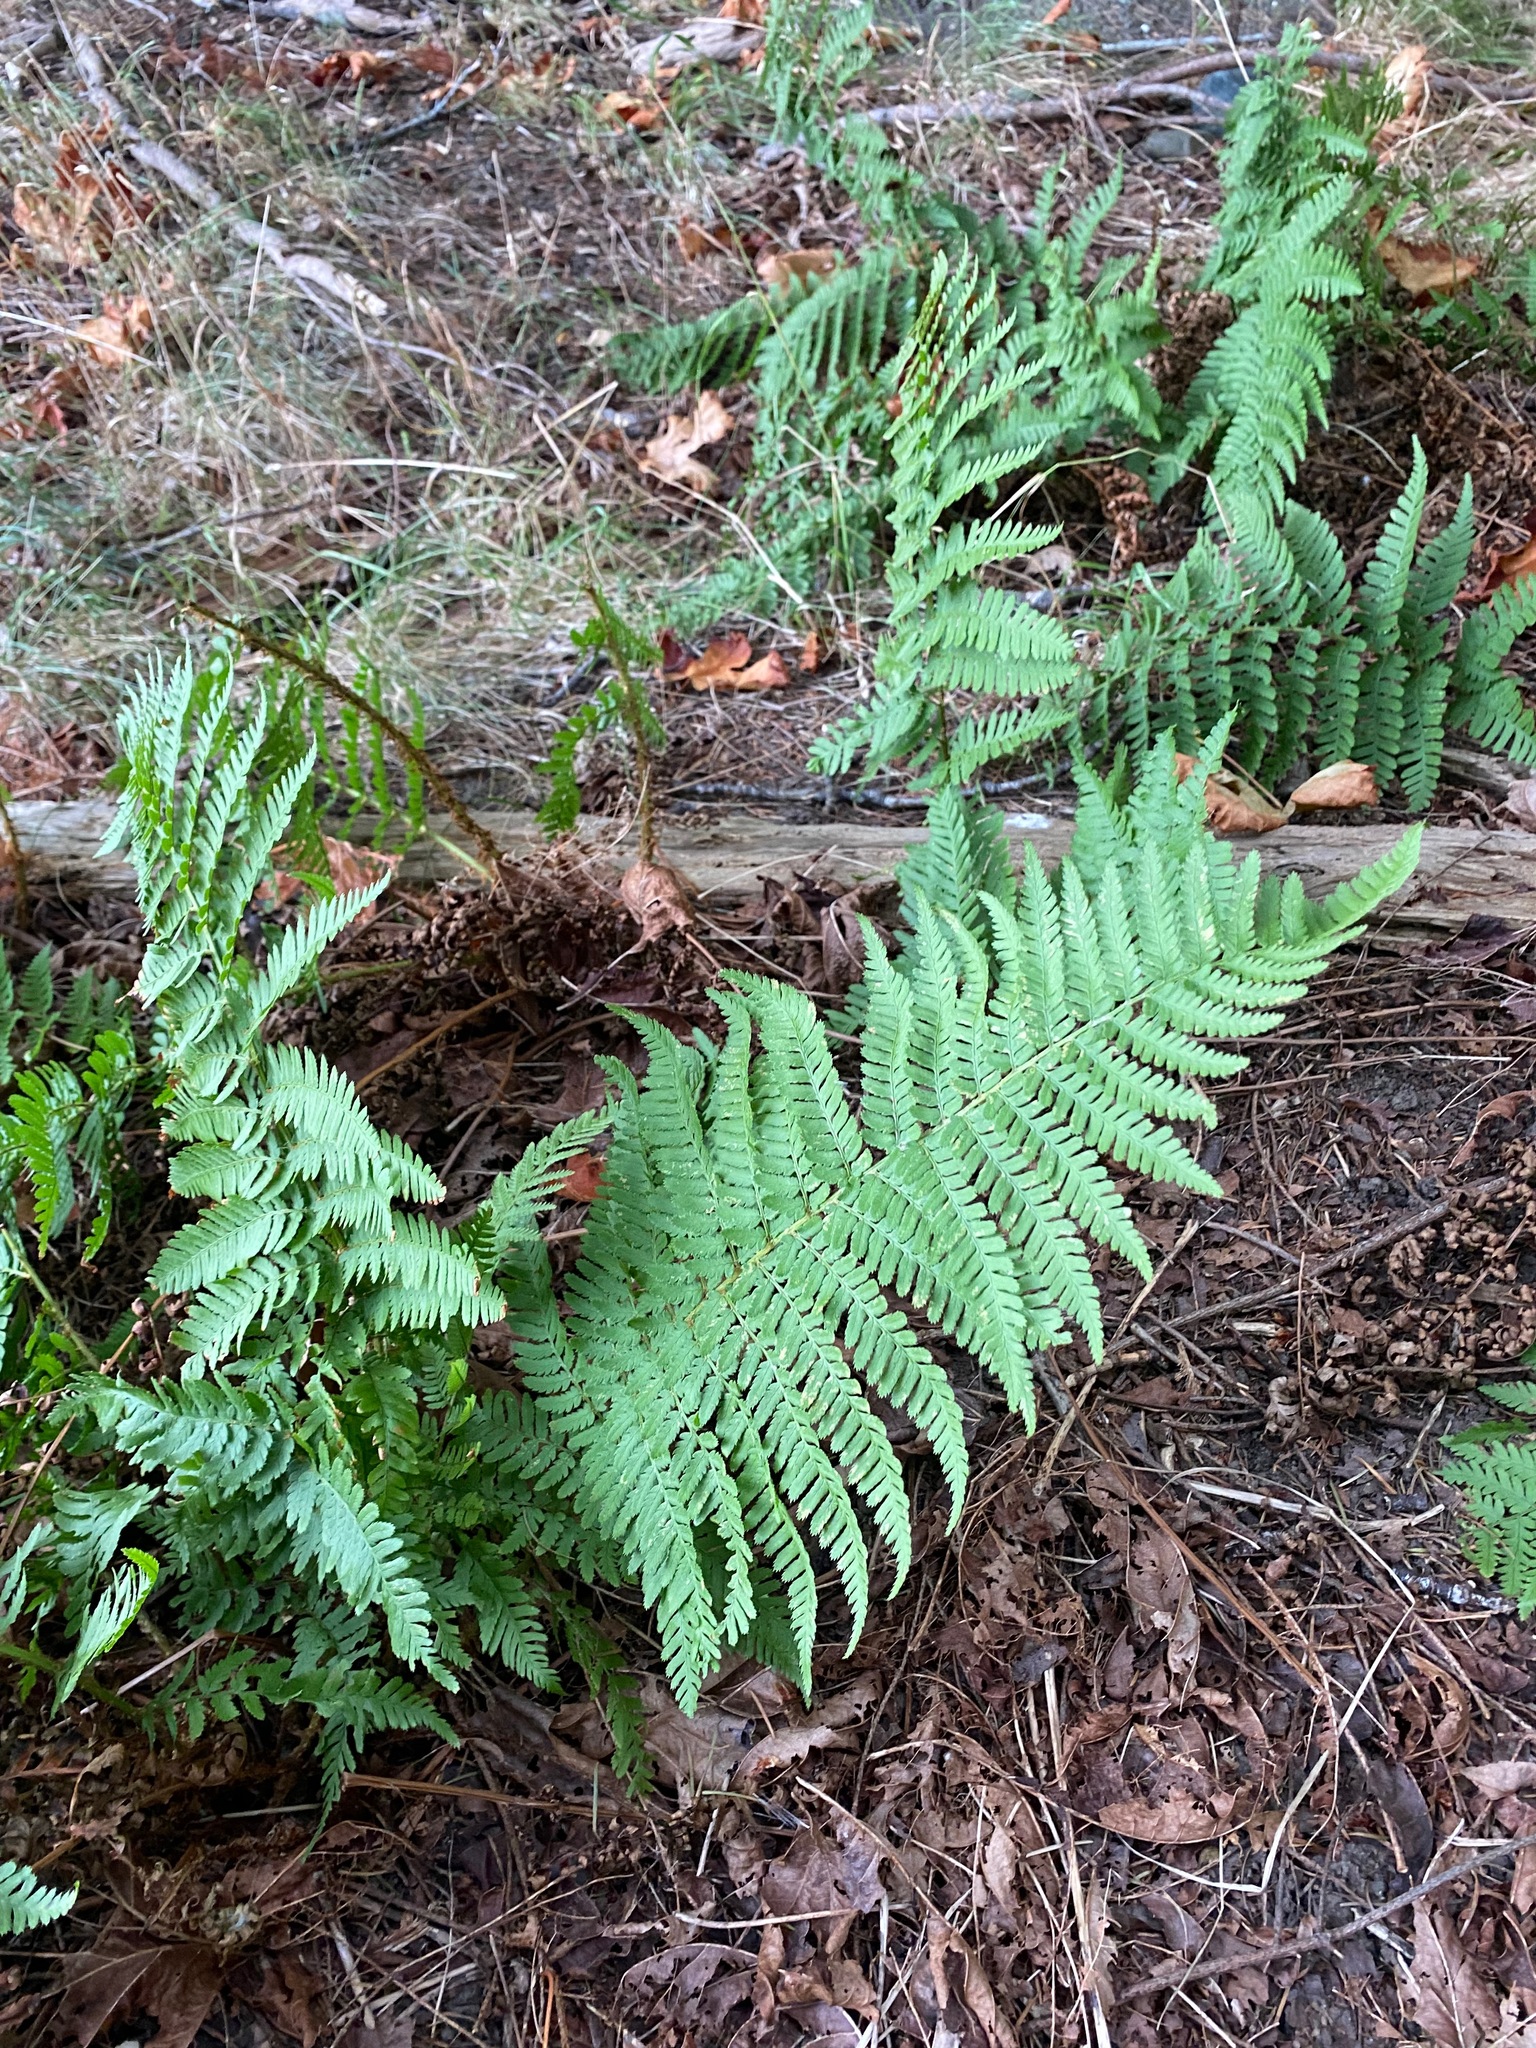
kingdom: Plantae
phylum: Tracheophyta
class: Polypodiopsida
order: Polypodiales
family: Dryopteridaceae
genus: Dryopteris
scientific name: Dryopteris arguta
